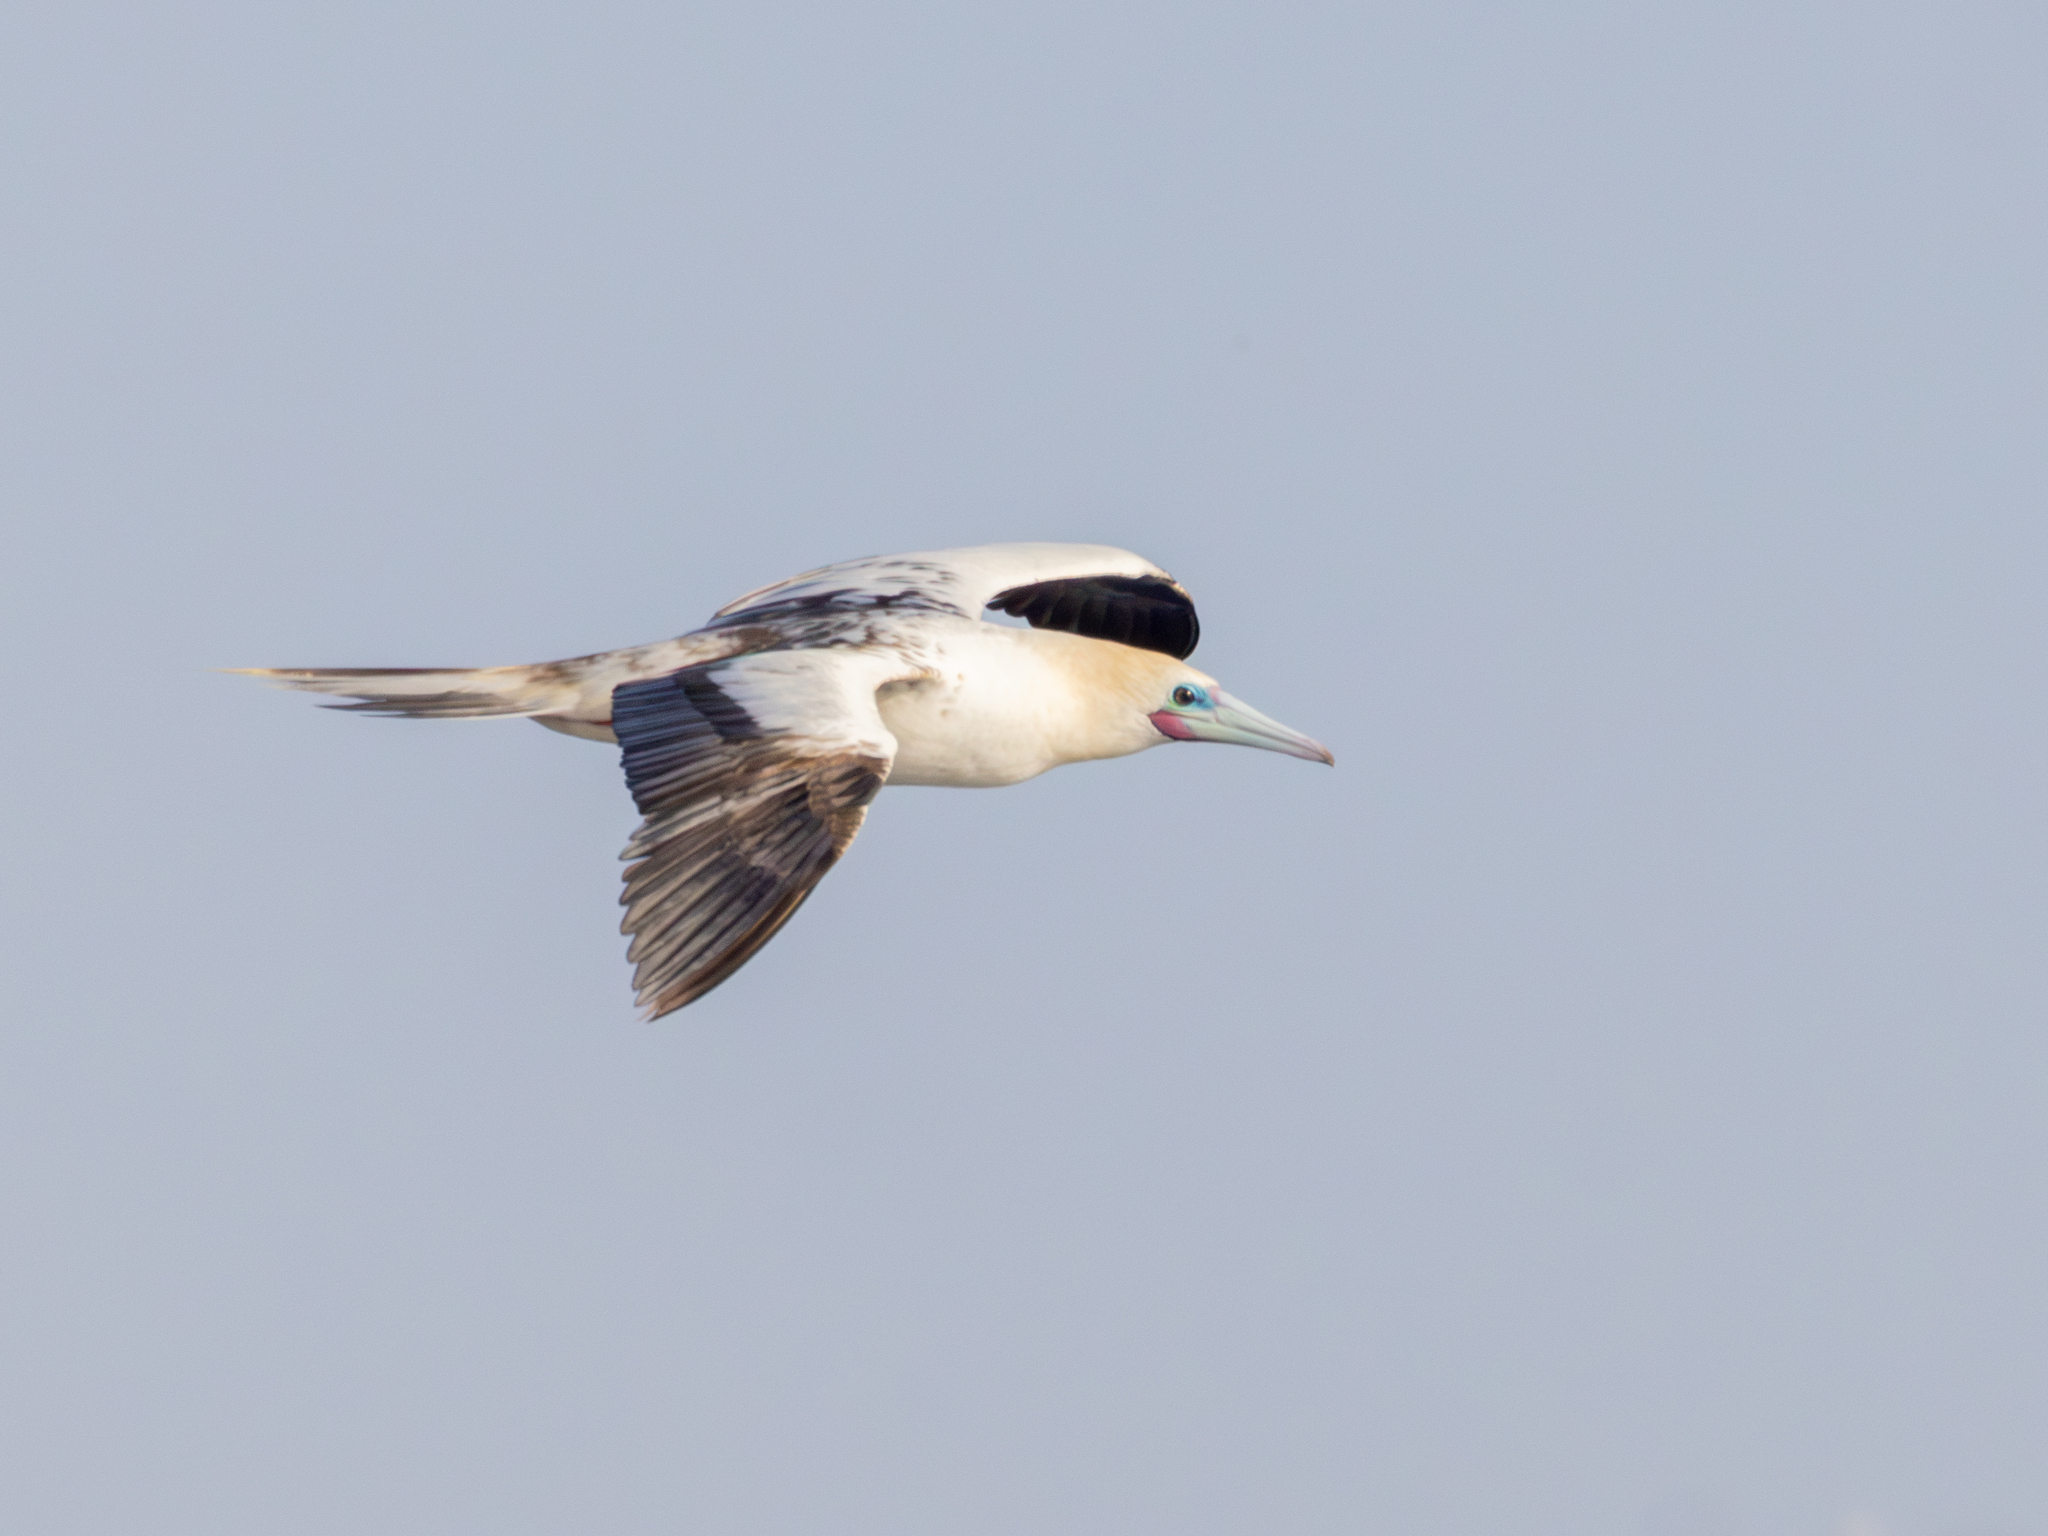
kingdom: Animalia
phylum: Chordata
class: Aves
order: Suliformes
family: Sulidae
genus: Sula
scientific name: Sula sula
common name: Red-footed booby
